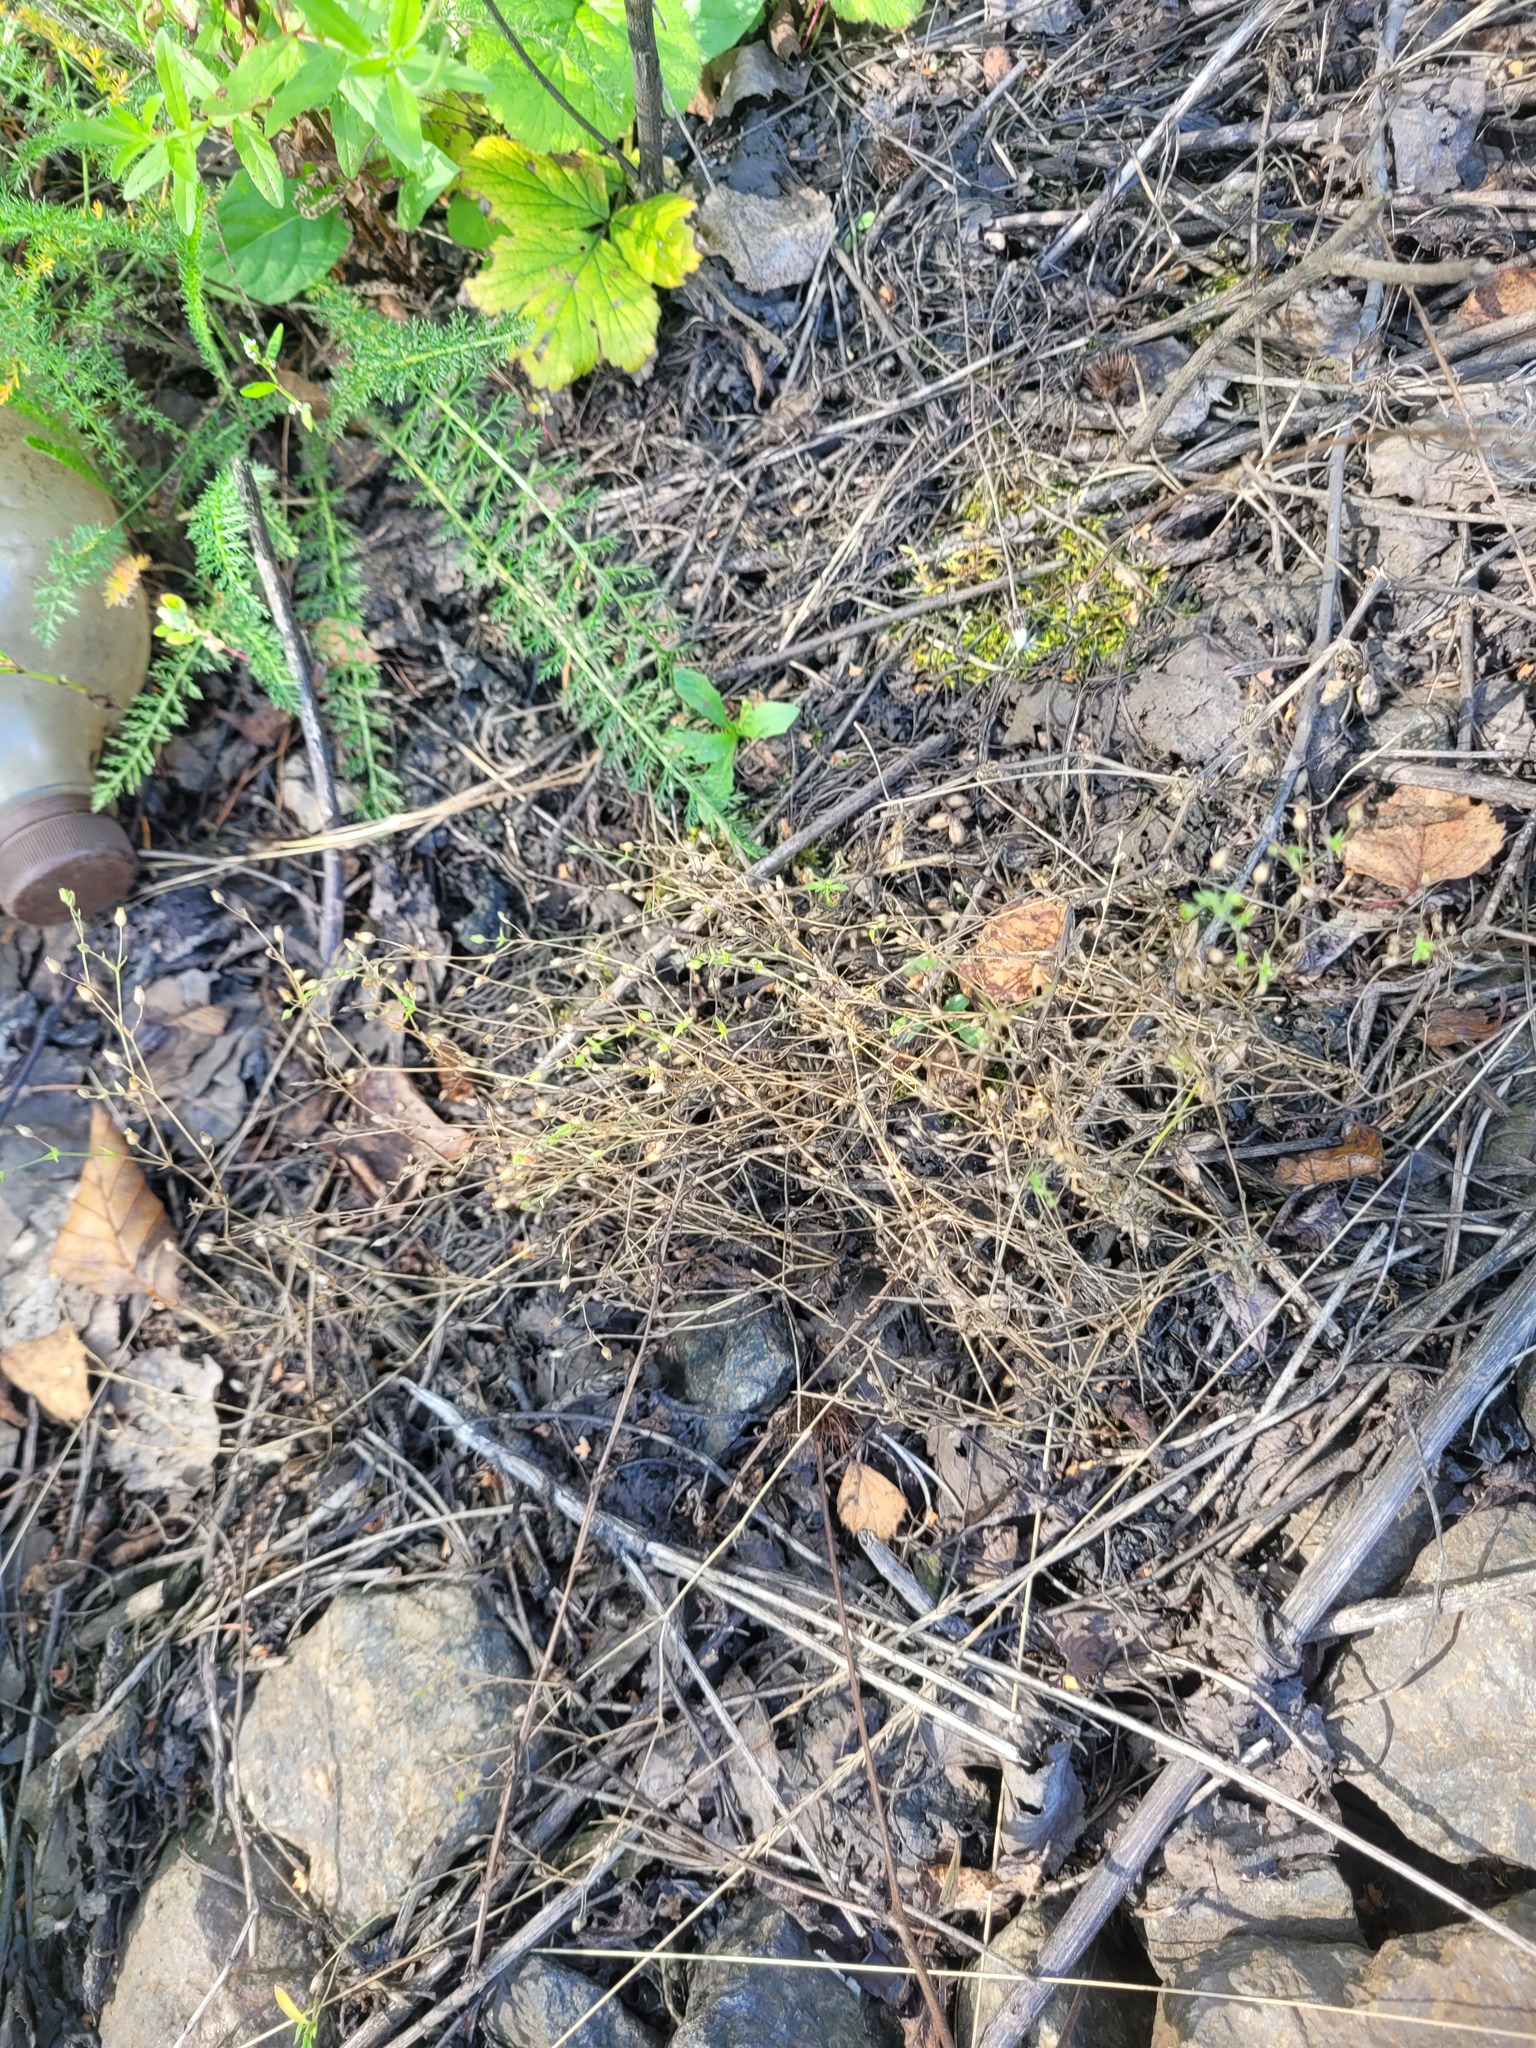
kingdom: Plantae
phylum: Tracheophyta
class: Magnoliopsida
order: Caryophyllales
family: Caryophyllaceae
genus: Arenaria
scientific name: Arenaria serpyllifolia
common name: Thyme-leaved sandwort
